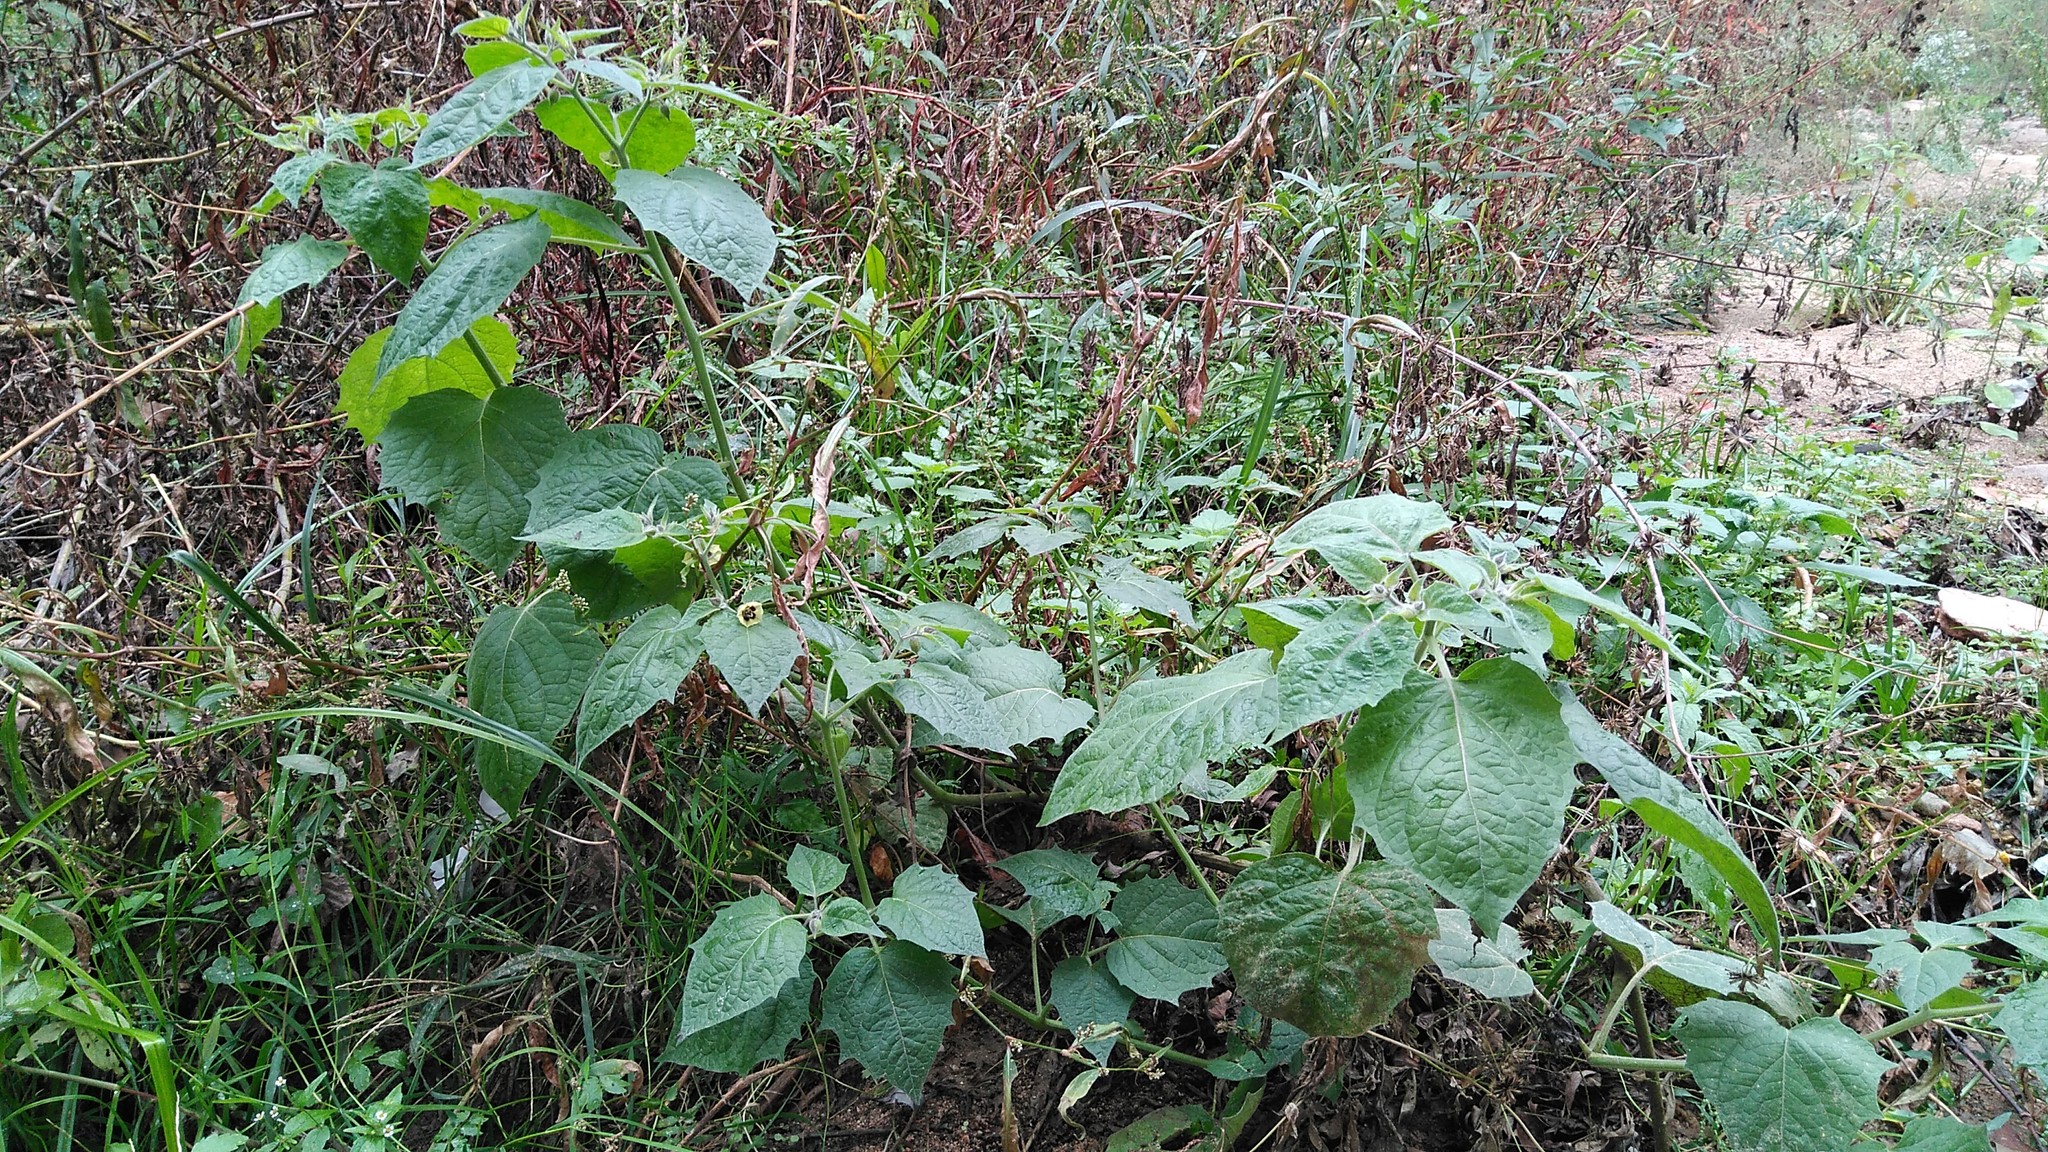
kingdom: Plantae
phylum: Tracheophyta
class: Magnoliopsida
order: Solanales
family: Solanaceae
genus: Physalis
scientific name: Physalis peruviana
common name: Cape-gooseberry
